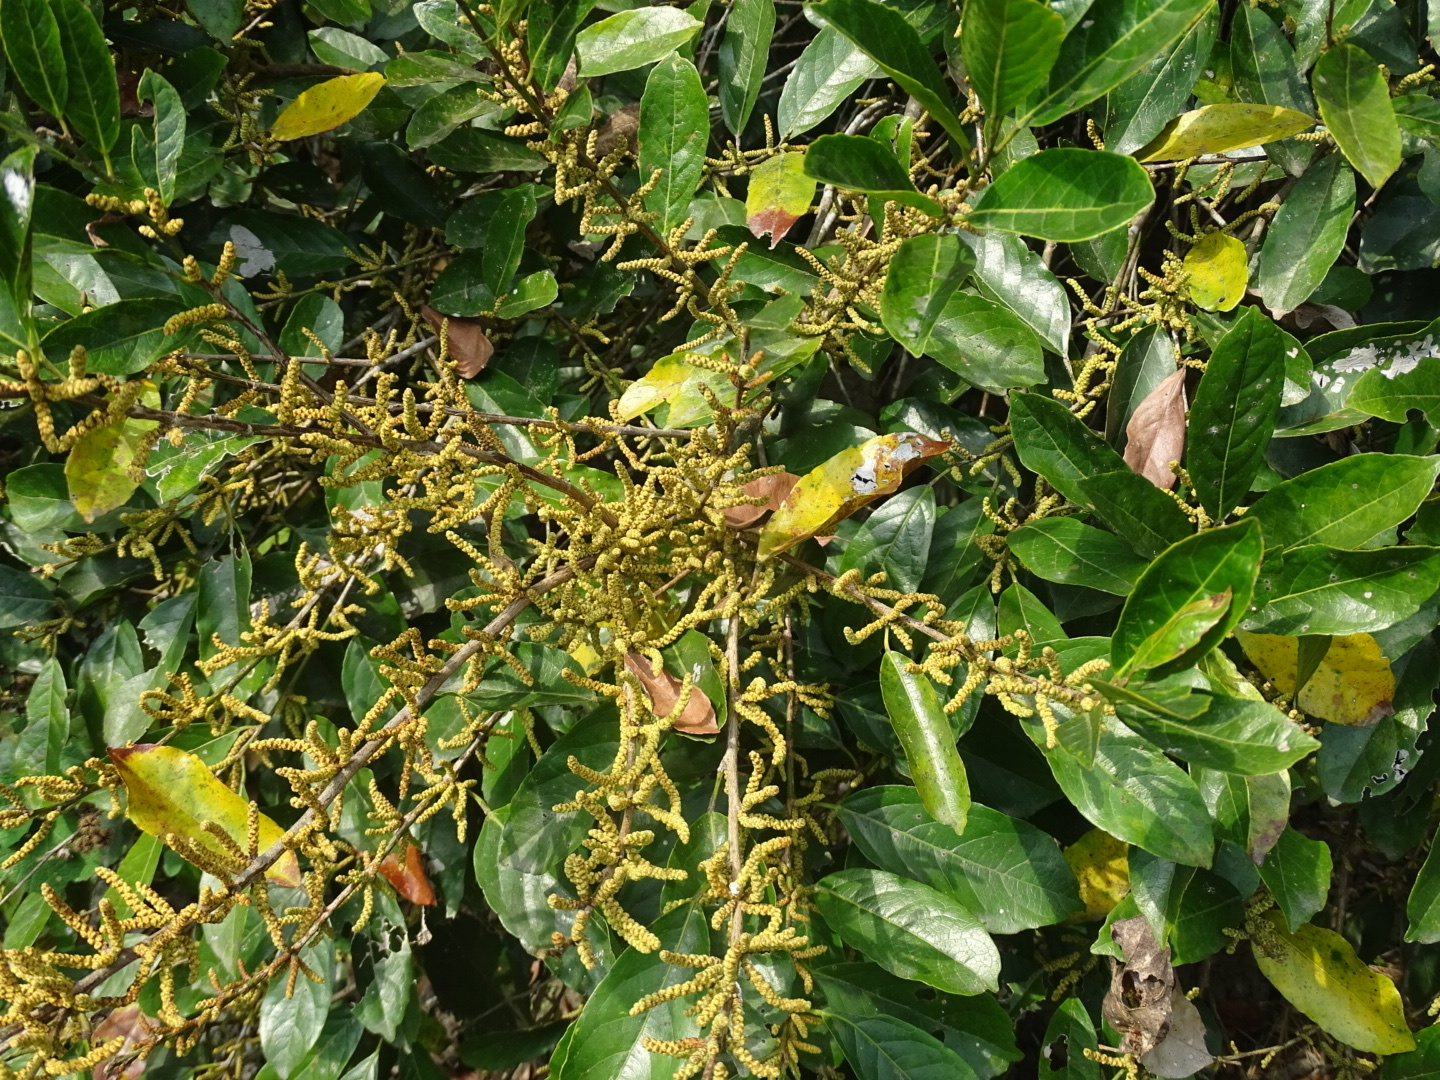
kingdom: Plantae
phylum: Tracheophyta
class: Magnoliopsida
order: Malpighiales
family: Phyllanthaceae
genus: Aporosa
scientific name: Aporosa octandra
